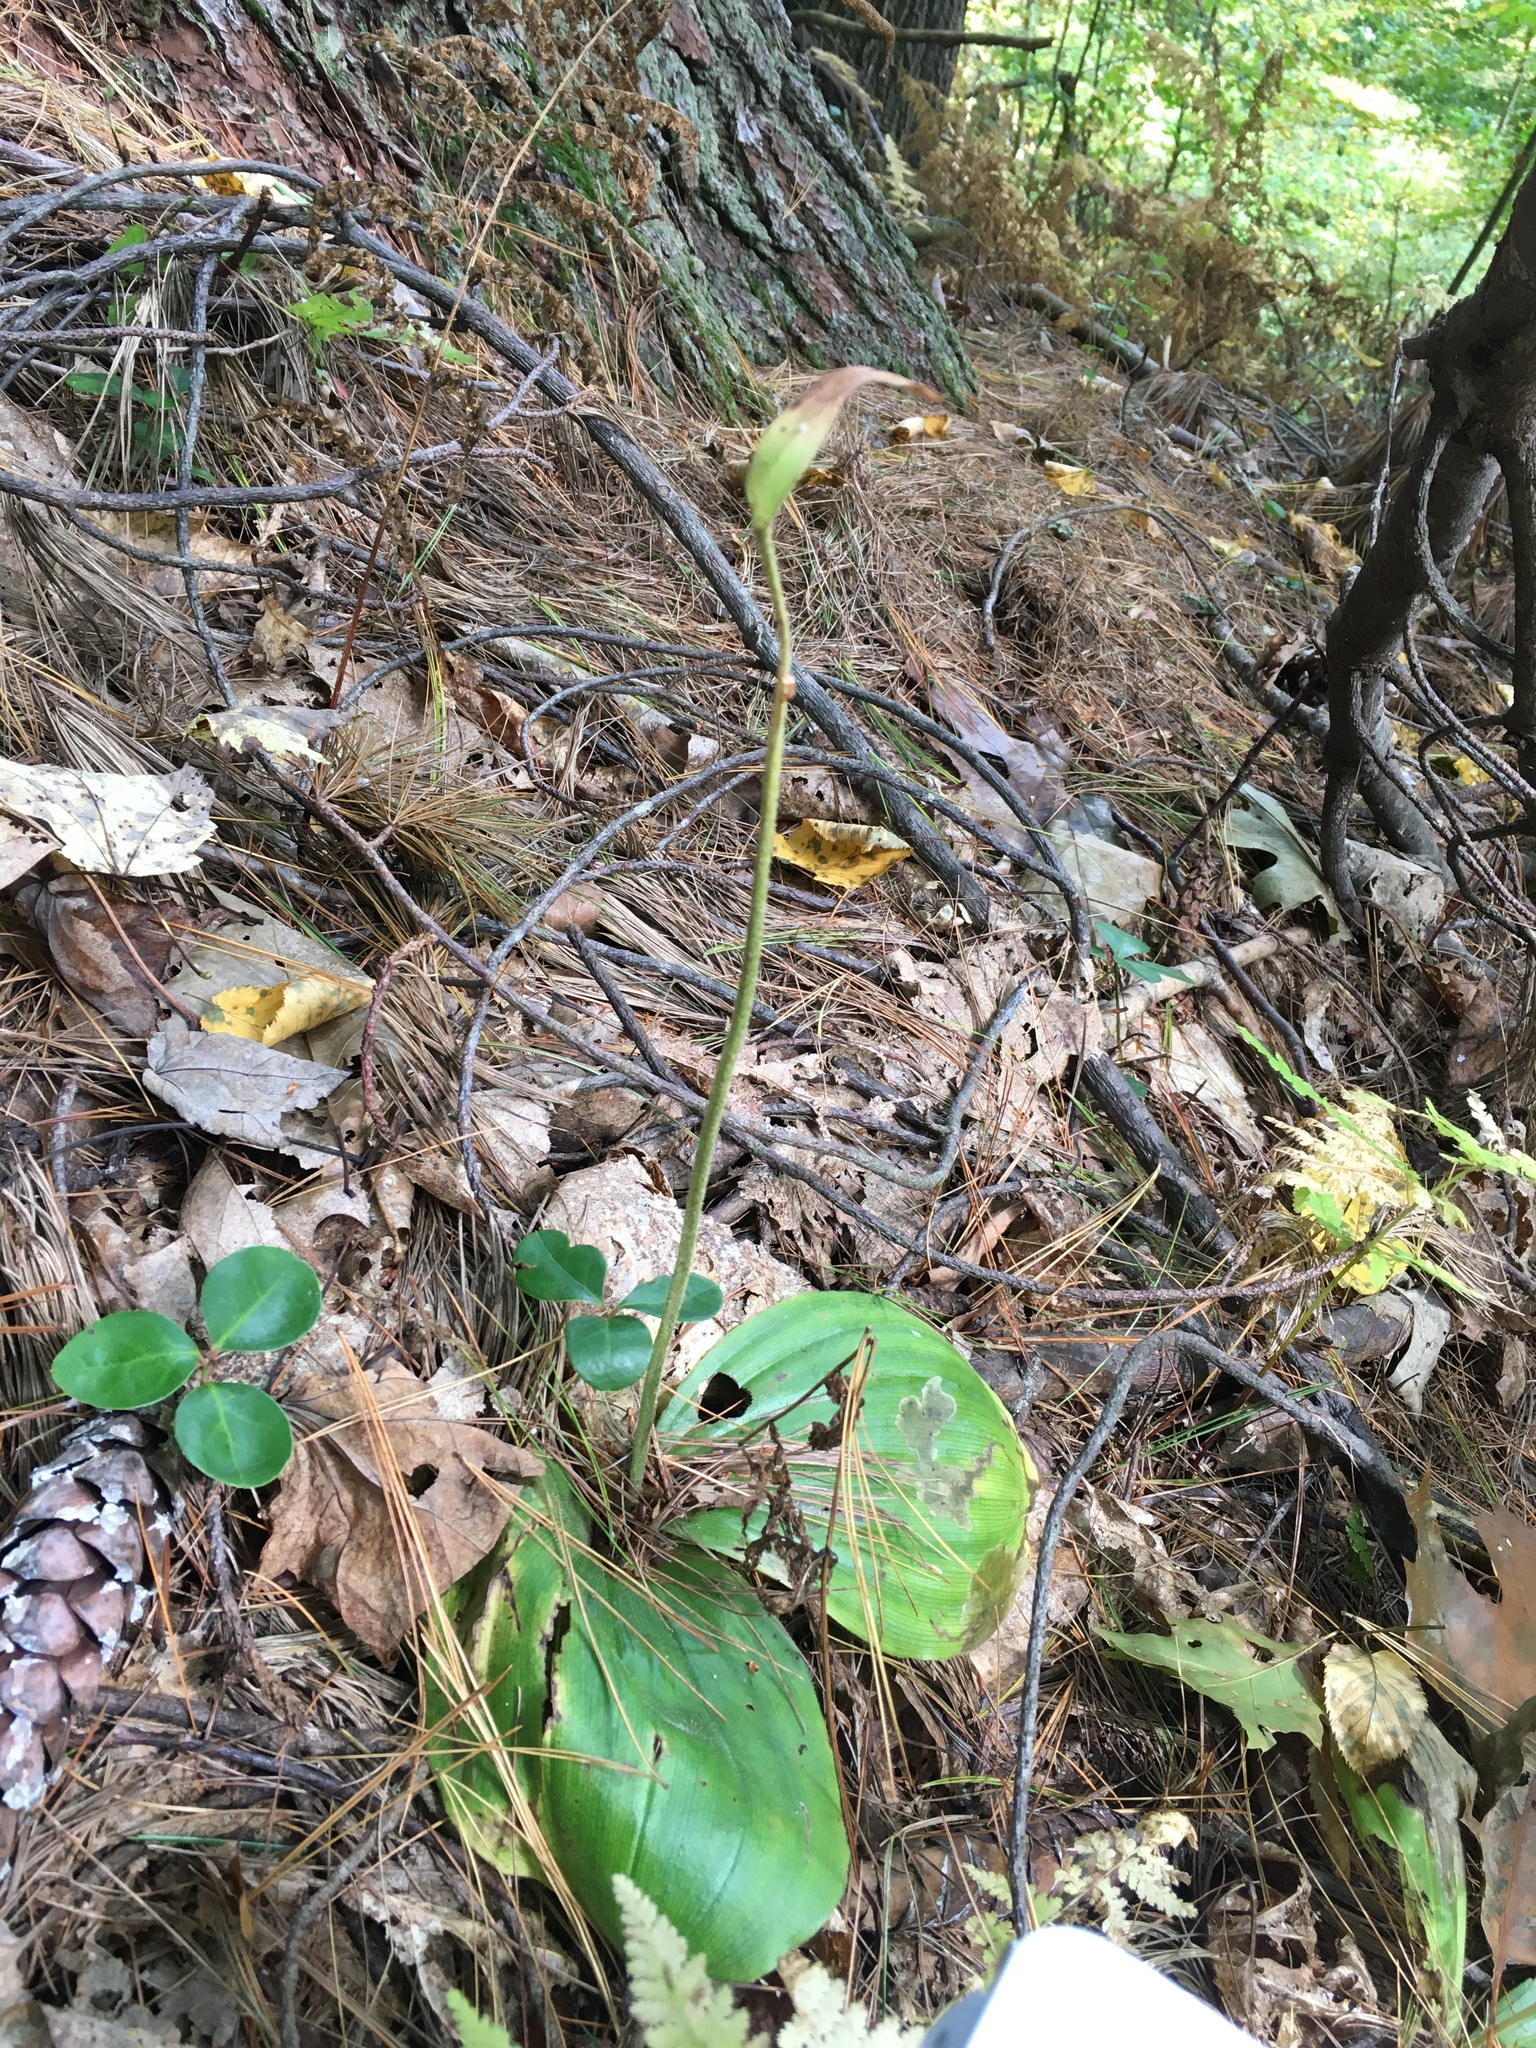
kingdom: Plantae
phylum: Tracheophyta
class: Liliopsida
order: Asparagales
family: Orchidaceae
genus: Cypripedium
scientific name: Cypripedium acaule
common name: Pink lady's-slipper
